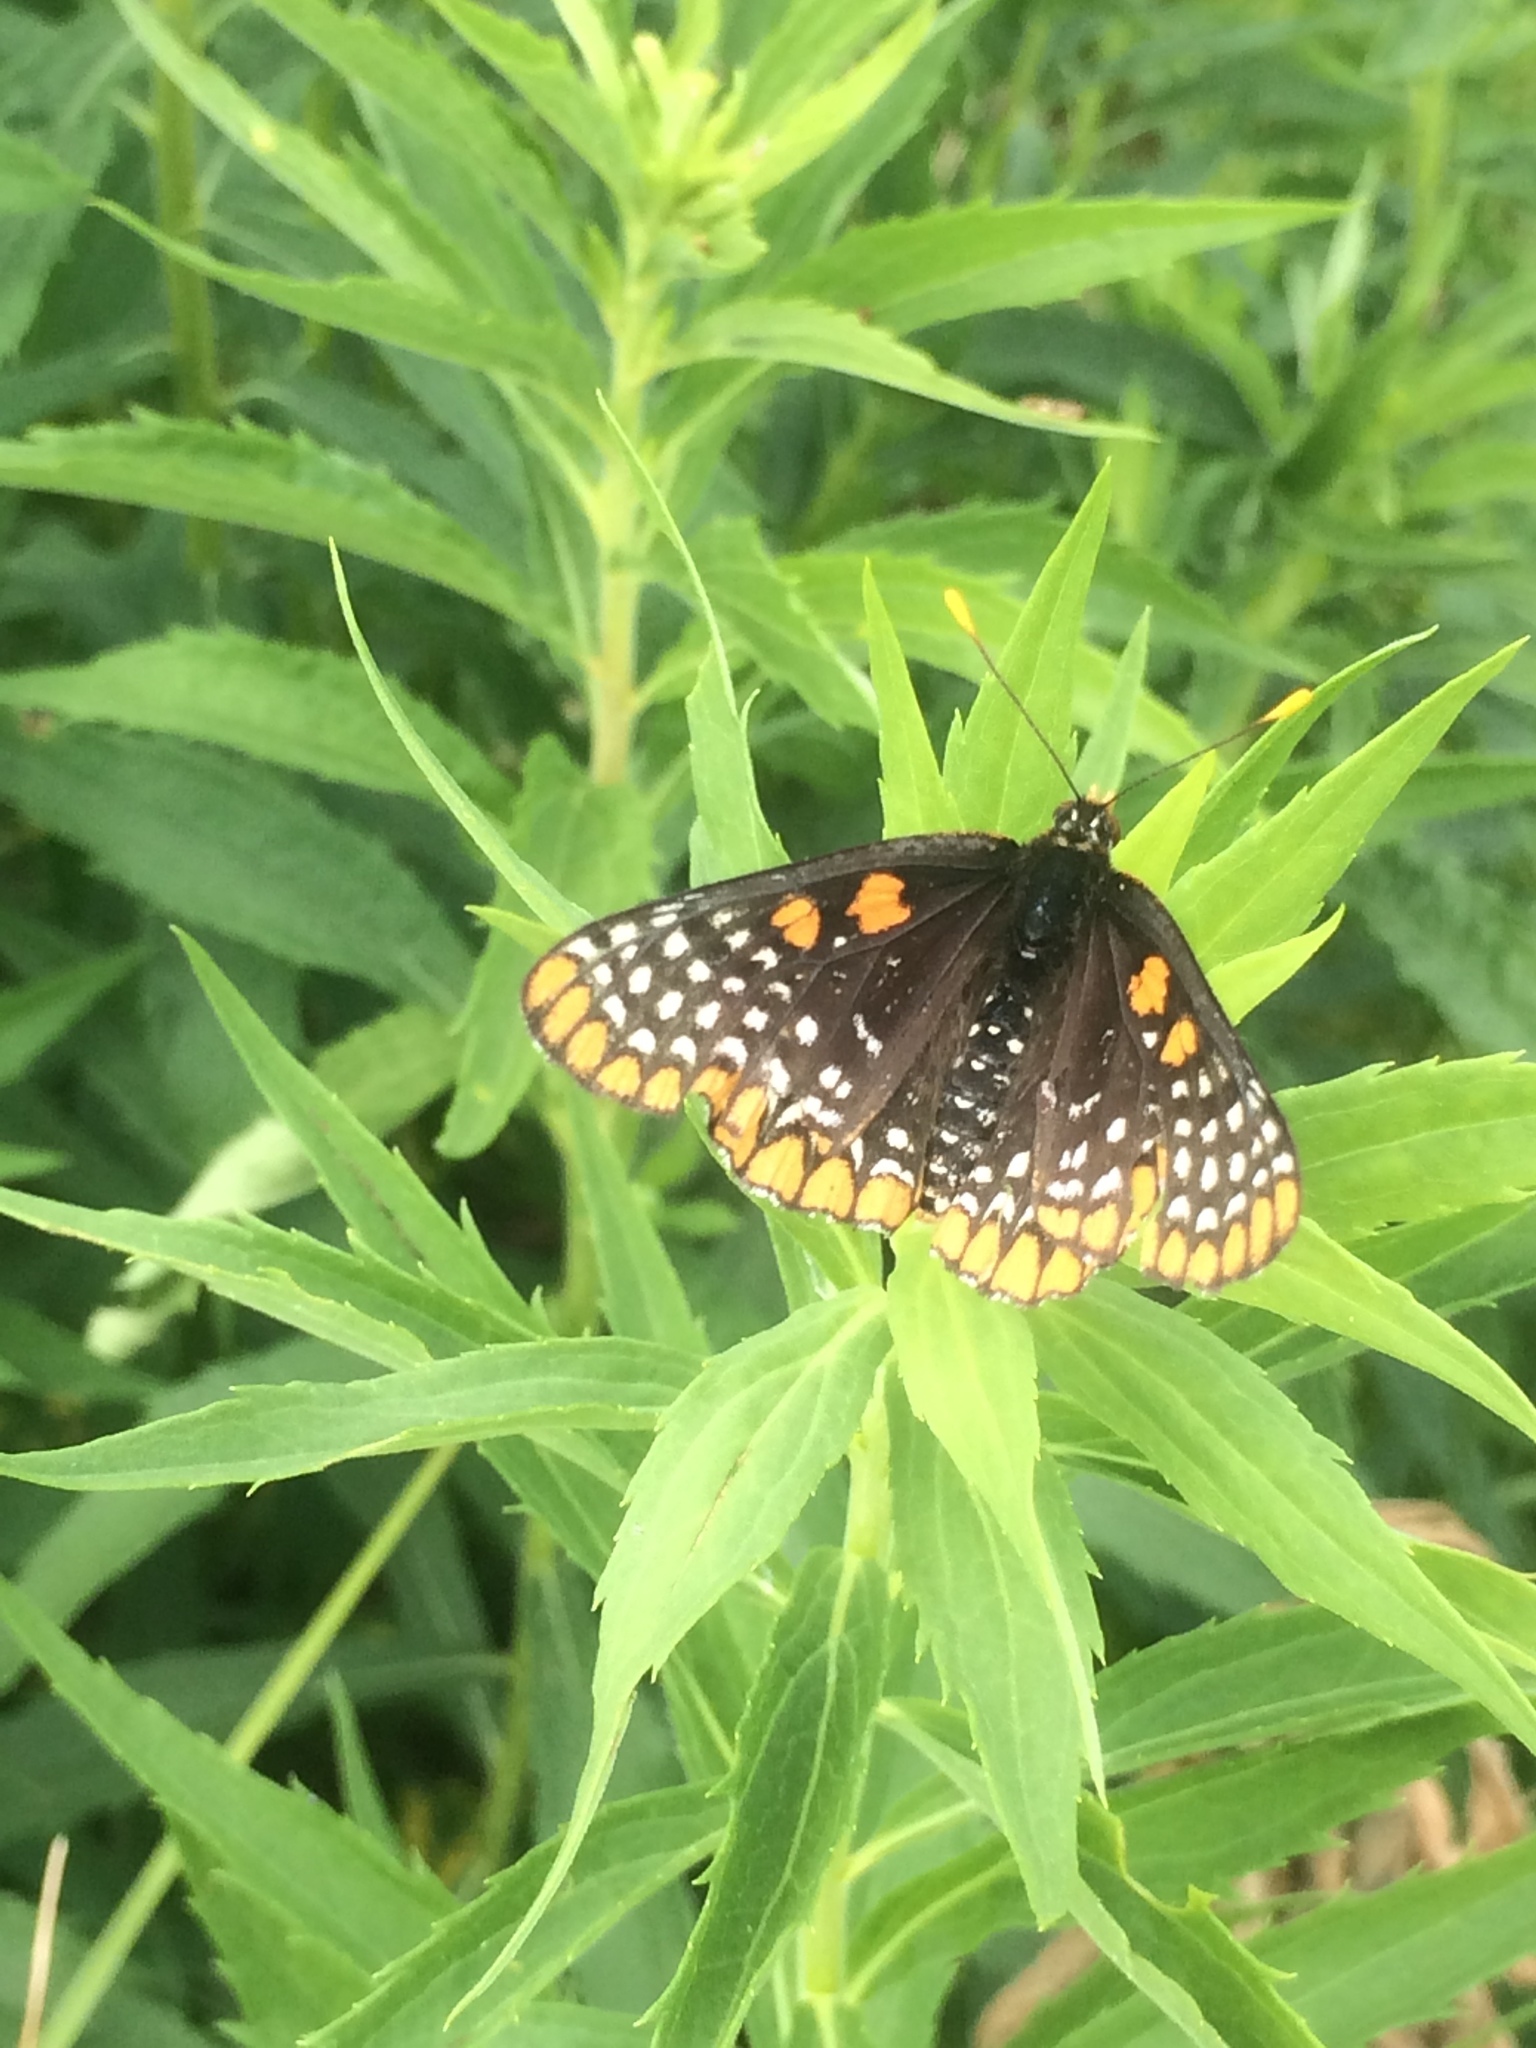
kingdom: Animalia
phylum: Arthropoda
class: Insecta
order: Lepidoptera
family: Nymphalidae
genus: Euphydryas
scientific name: Euphydryas phaeton
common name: Baltimore checkerspot
